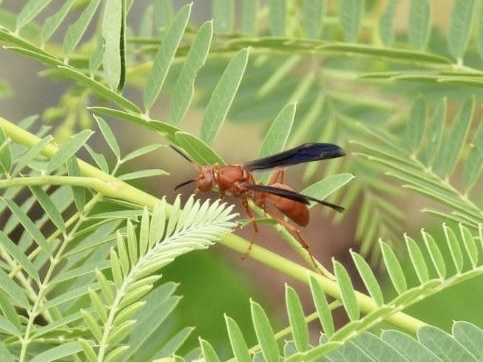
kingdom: Animalia
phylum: Arthropoda
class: Insecta
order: Hymenoptera
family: Vespidae
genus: Fuscopolistes
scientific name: Fuscopolistes
